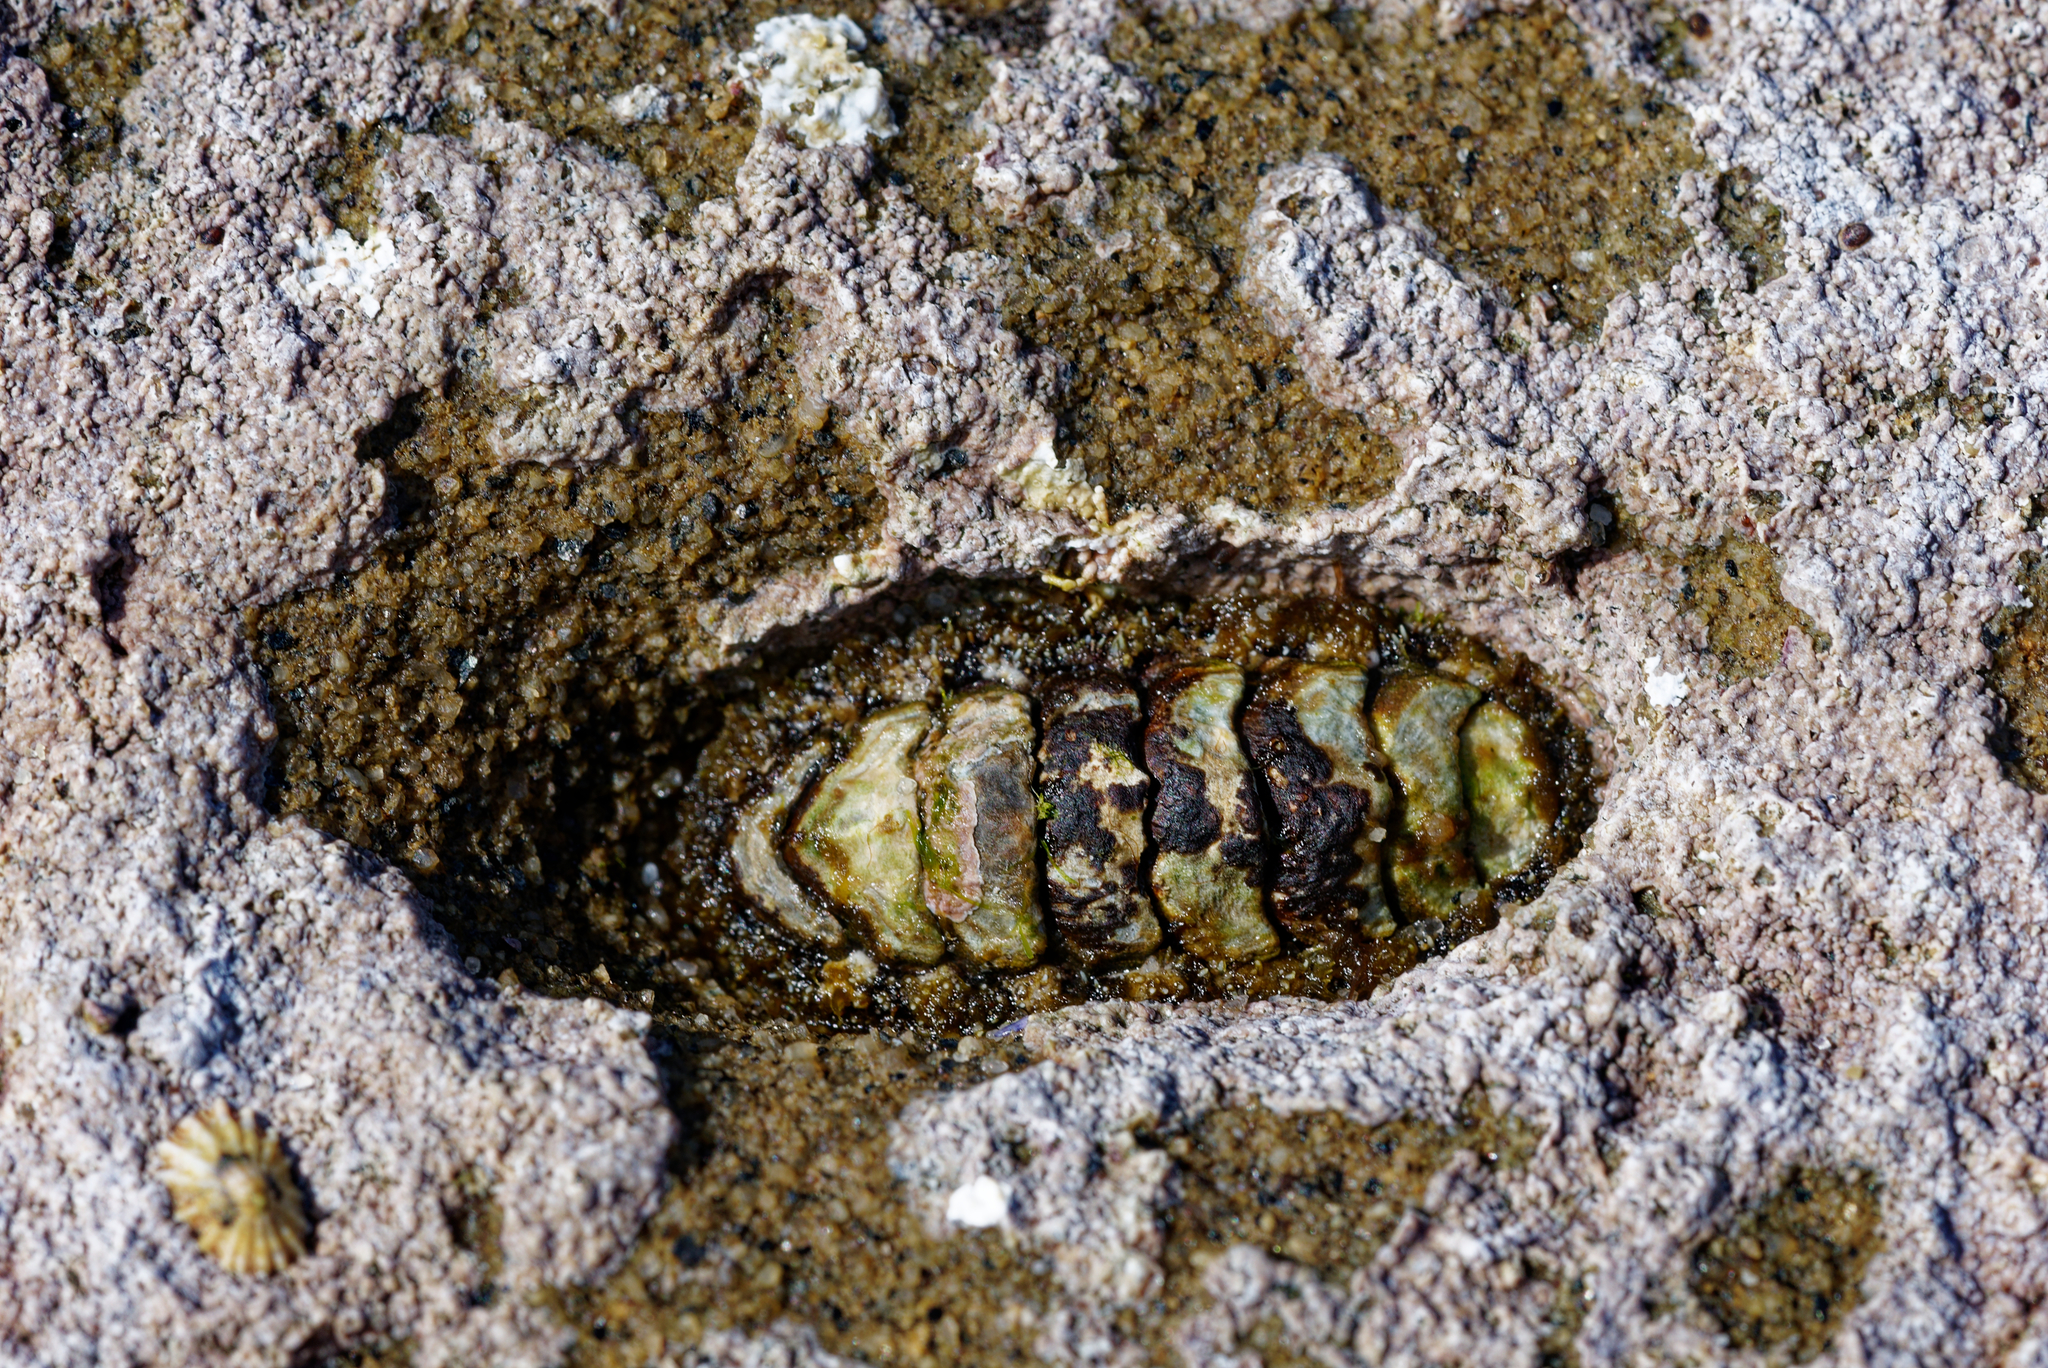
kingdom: Animalia
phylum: Mollusca
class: Polyplacophora
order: Chitonida
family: Tonicellidae
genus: Nuttallina
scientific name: Nuttallina californica
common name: California nuttall chiton
